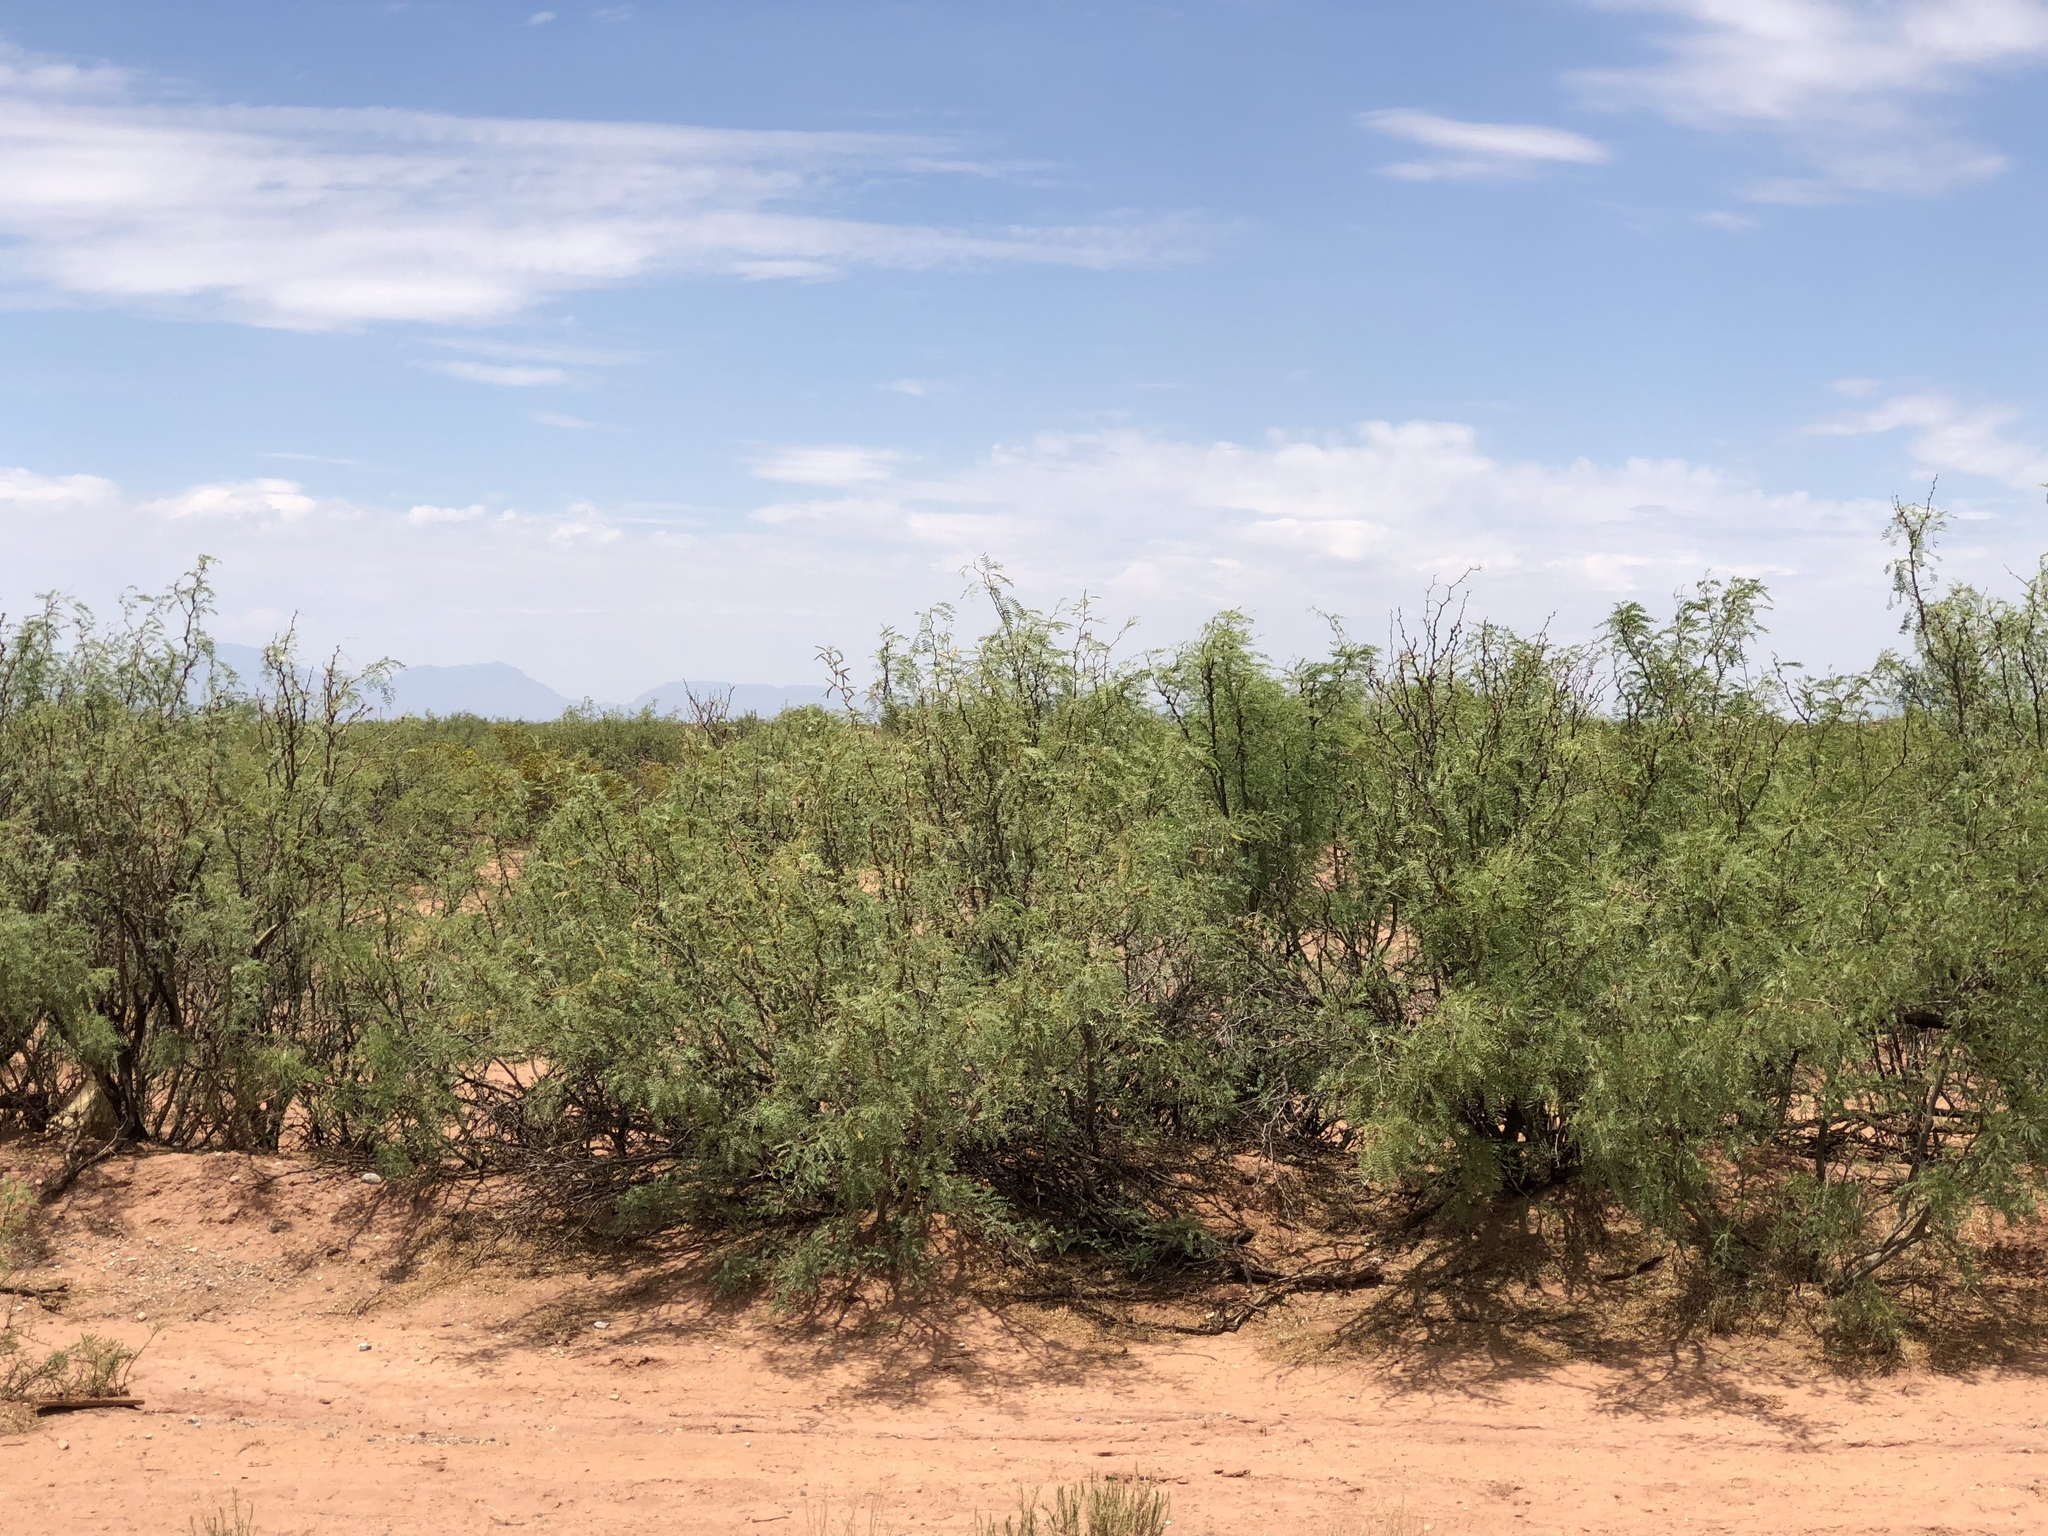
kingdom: Plantae
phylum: Tracheophyta
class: Magnoliopsida
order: Fabales
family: Fabaceae
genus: Prosopis
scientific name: Prosopis glandulosa
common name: Honey mesquite
